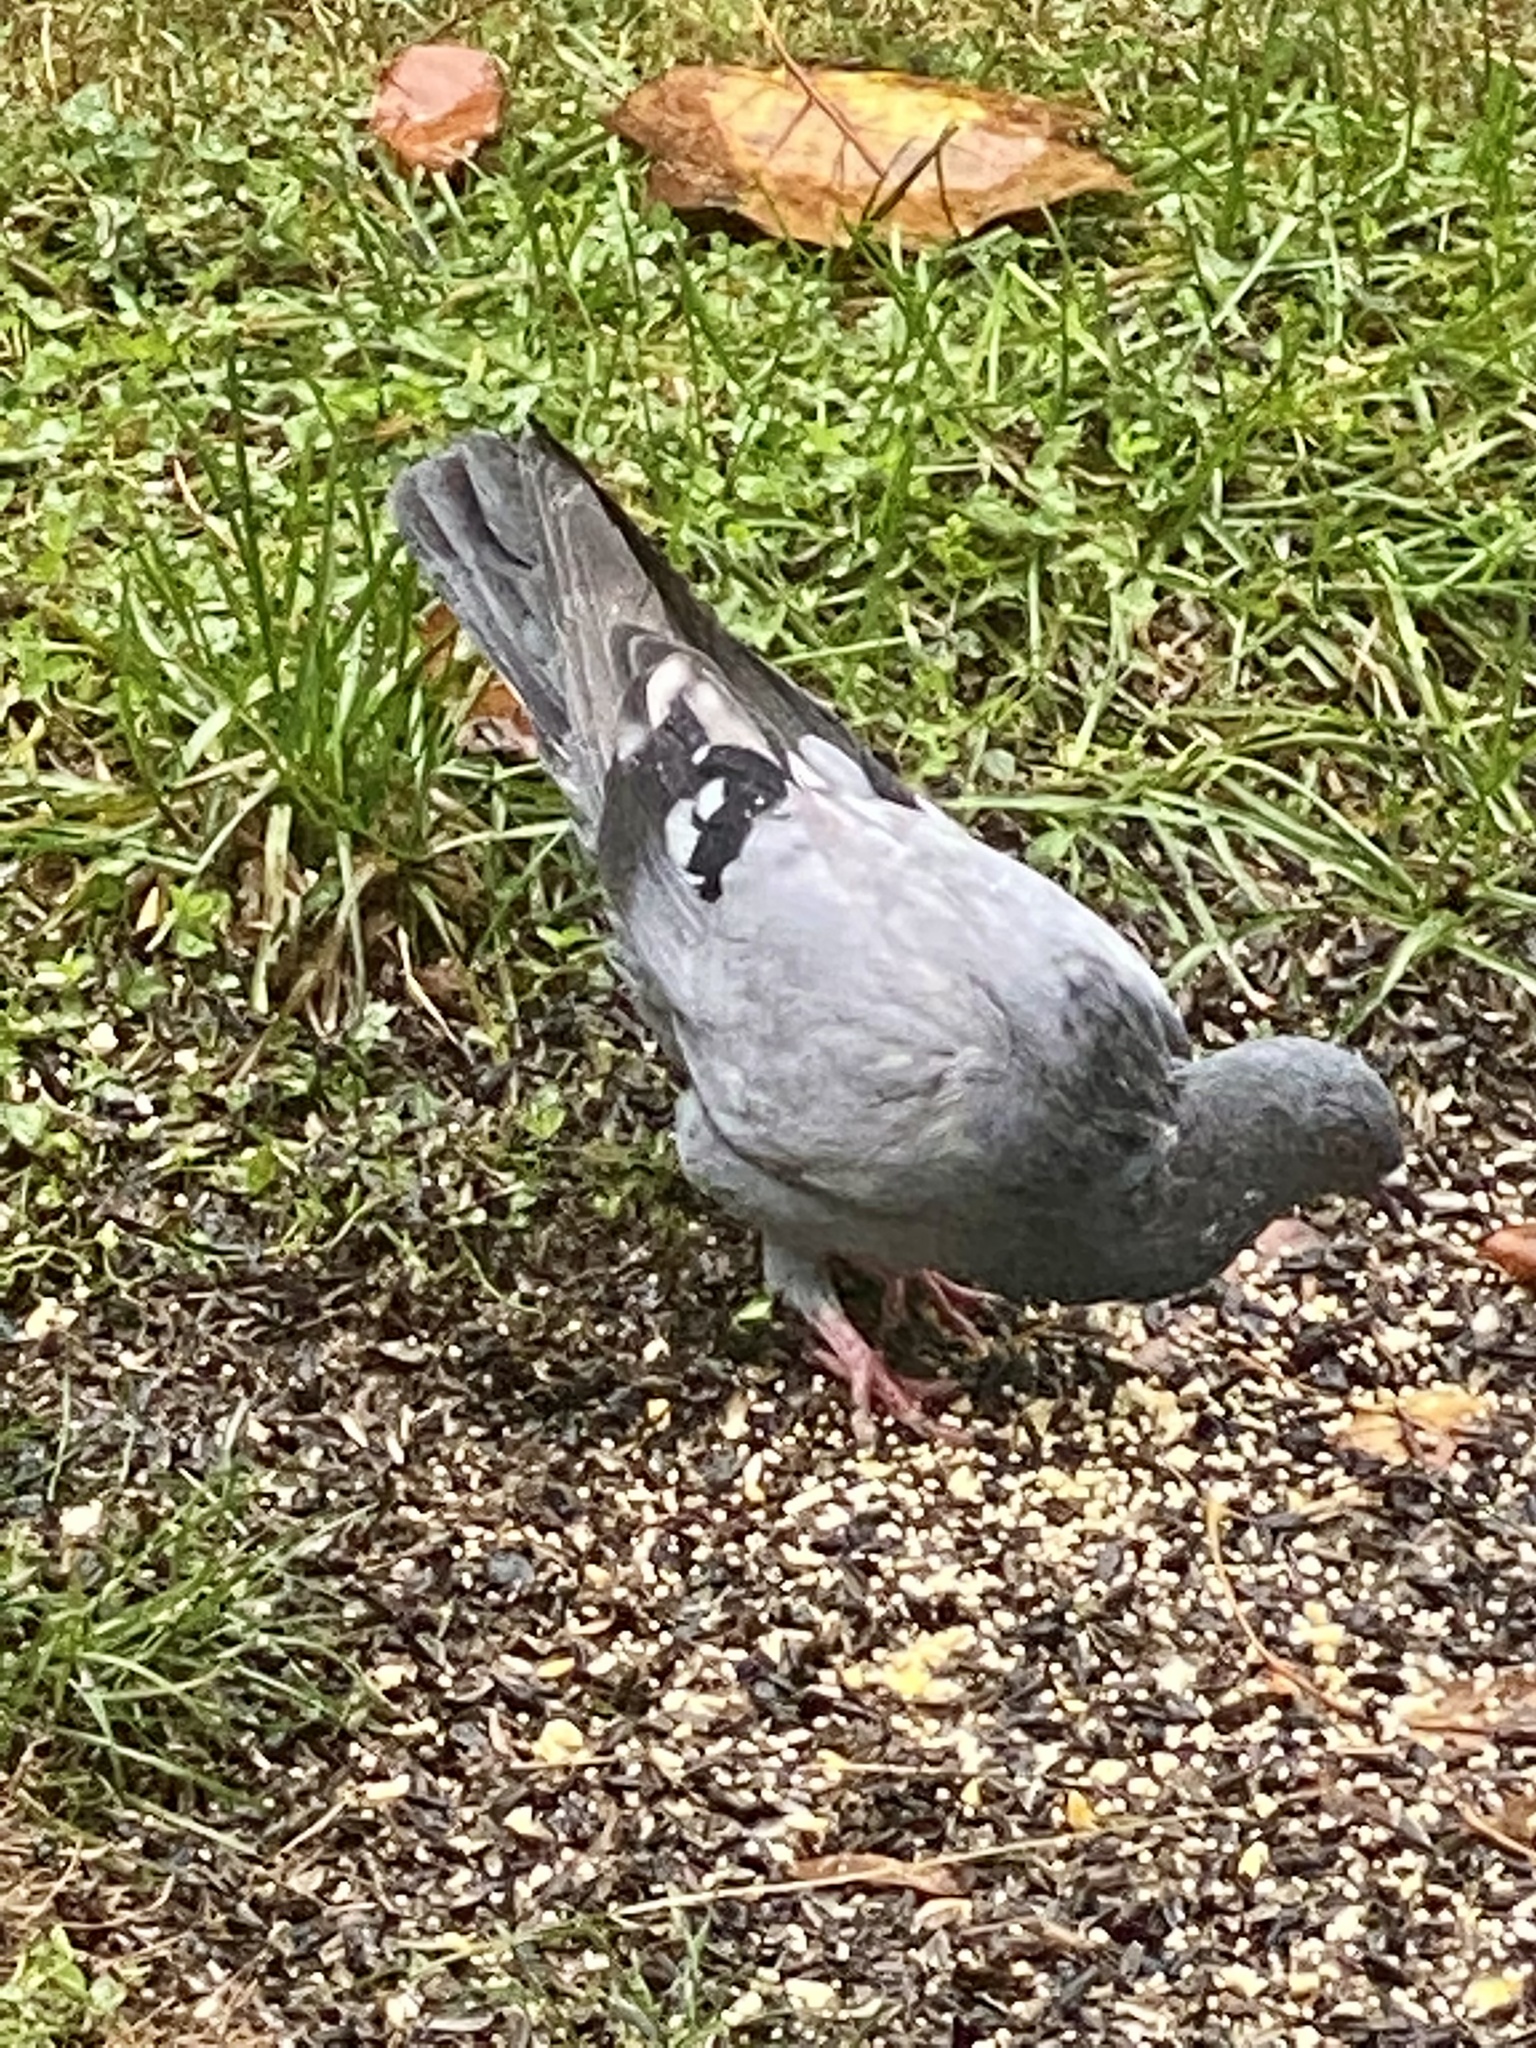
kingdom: Animalia
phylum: Chordata
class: Aves
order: Columbiformes
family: Columbidae
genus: Columba
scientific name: Columba livia
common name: Rock pigeon
